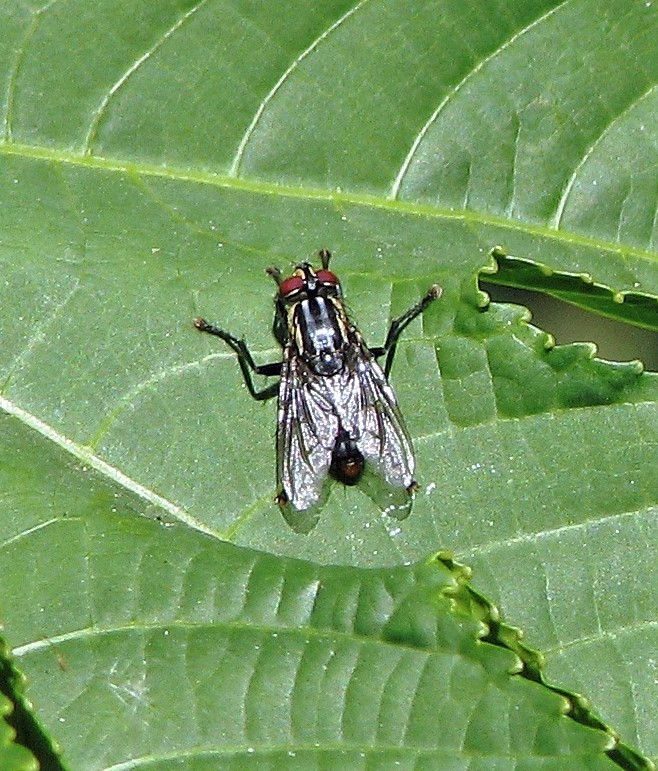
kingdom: Animalia
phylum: Arthropoda
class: Insecta
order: Diptera
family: Sarcophagidae
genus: Lipoptilocnema
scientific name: Lipoptilocnema koehleri
